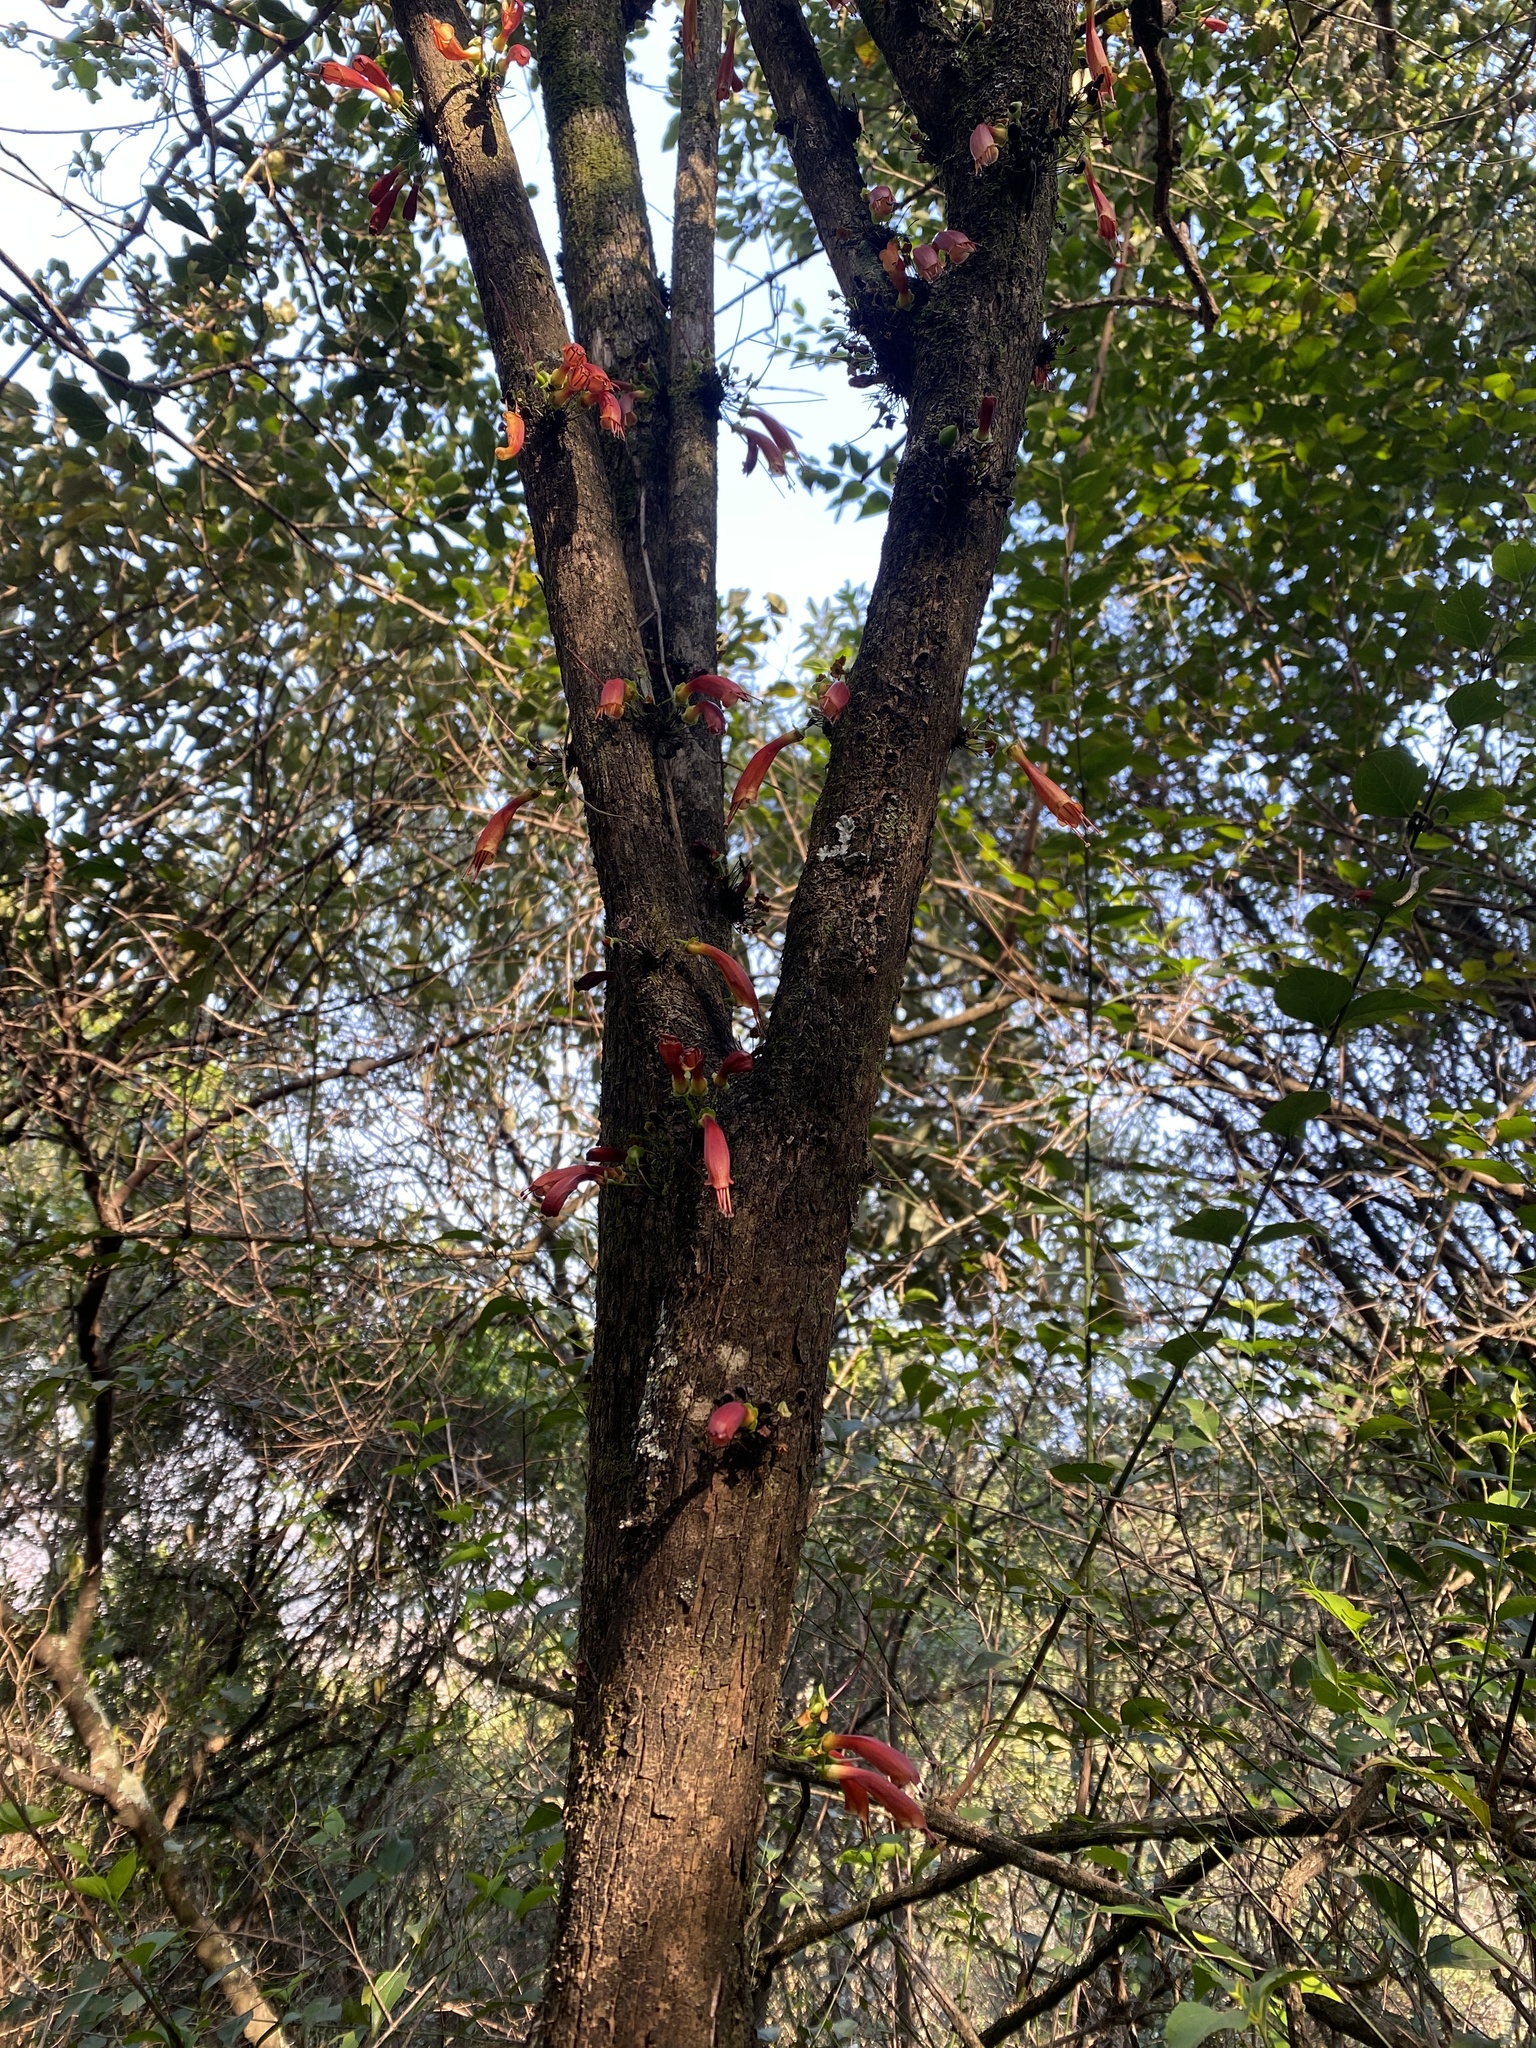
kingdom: Plantae
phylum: Tracheophyta
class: Magnoliopsida
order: Lamiales
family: Stilbaceae
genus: Halleria
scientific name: Halleria lucida
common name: Tree fuschia
